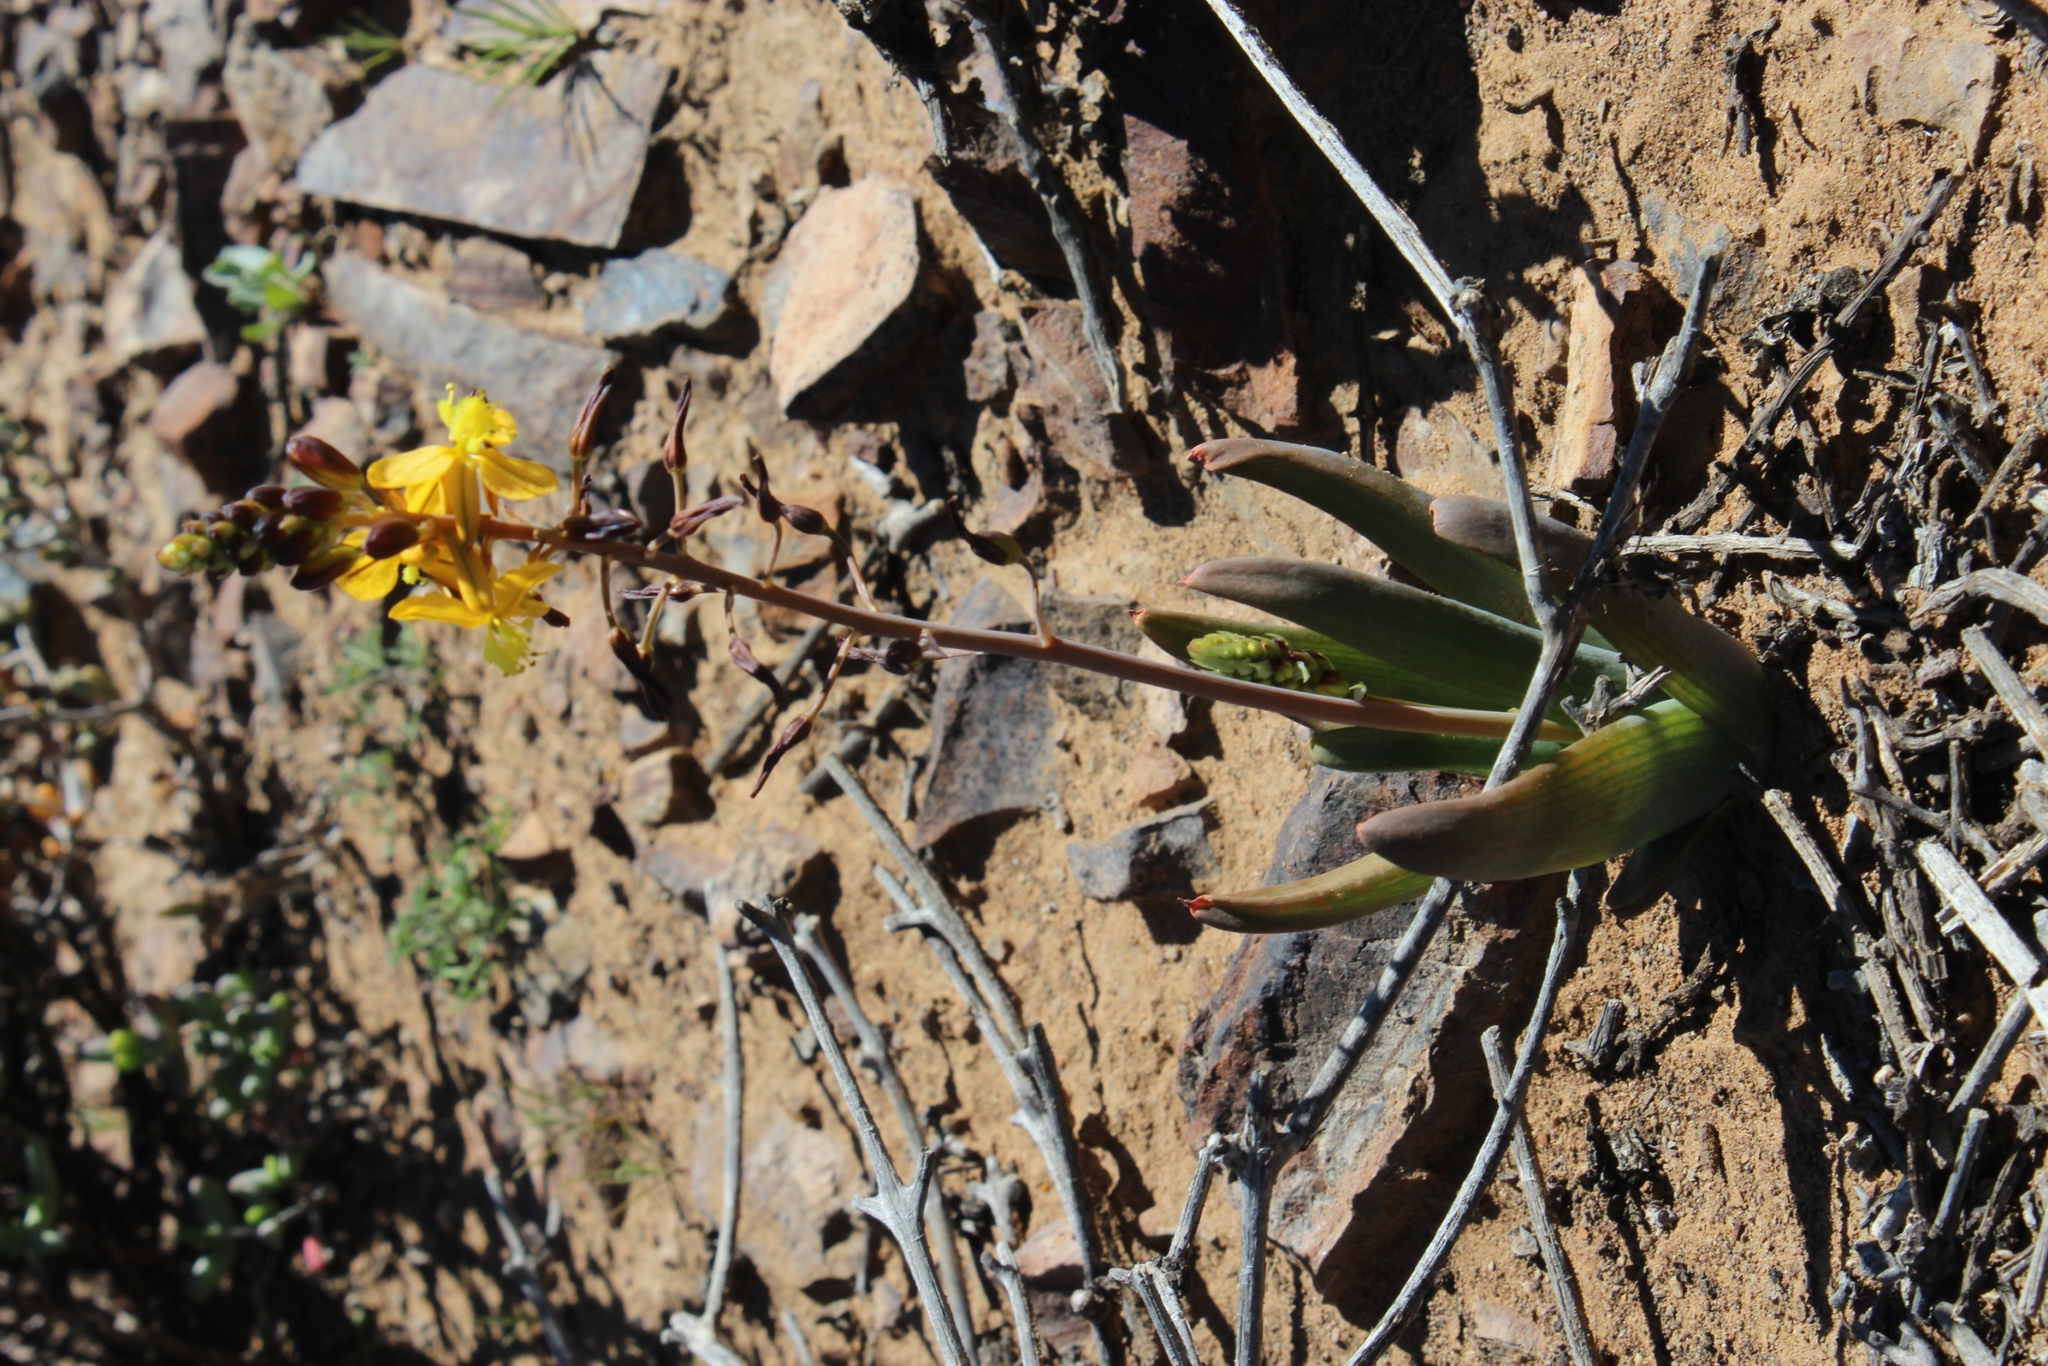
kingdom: Plantae
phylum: Tracheophyta
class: Liliopsida
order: Asparagales
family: Asphodelaceae
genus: Bulbine
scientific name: Bulbine succulenta
